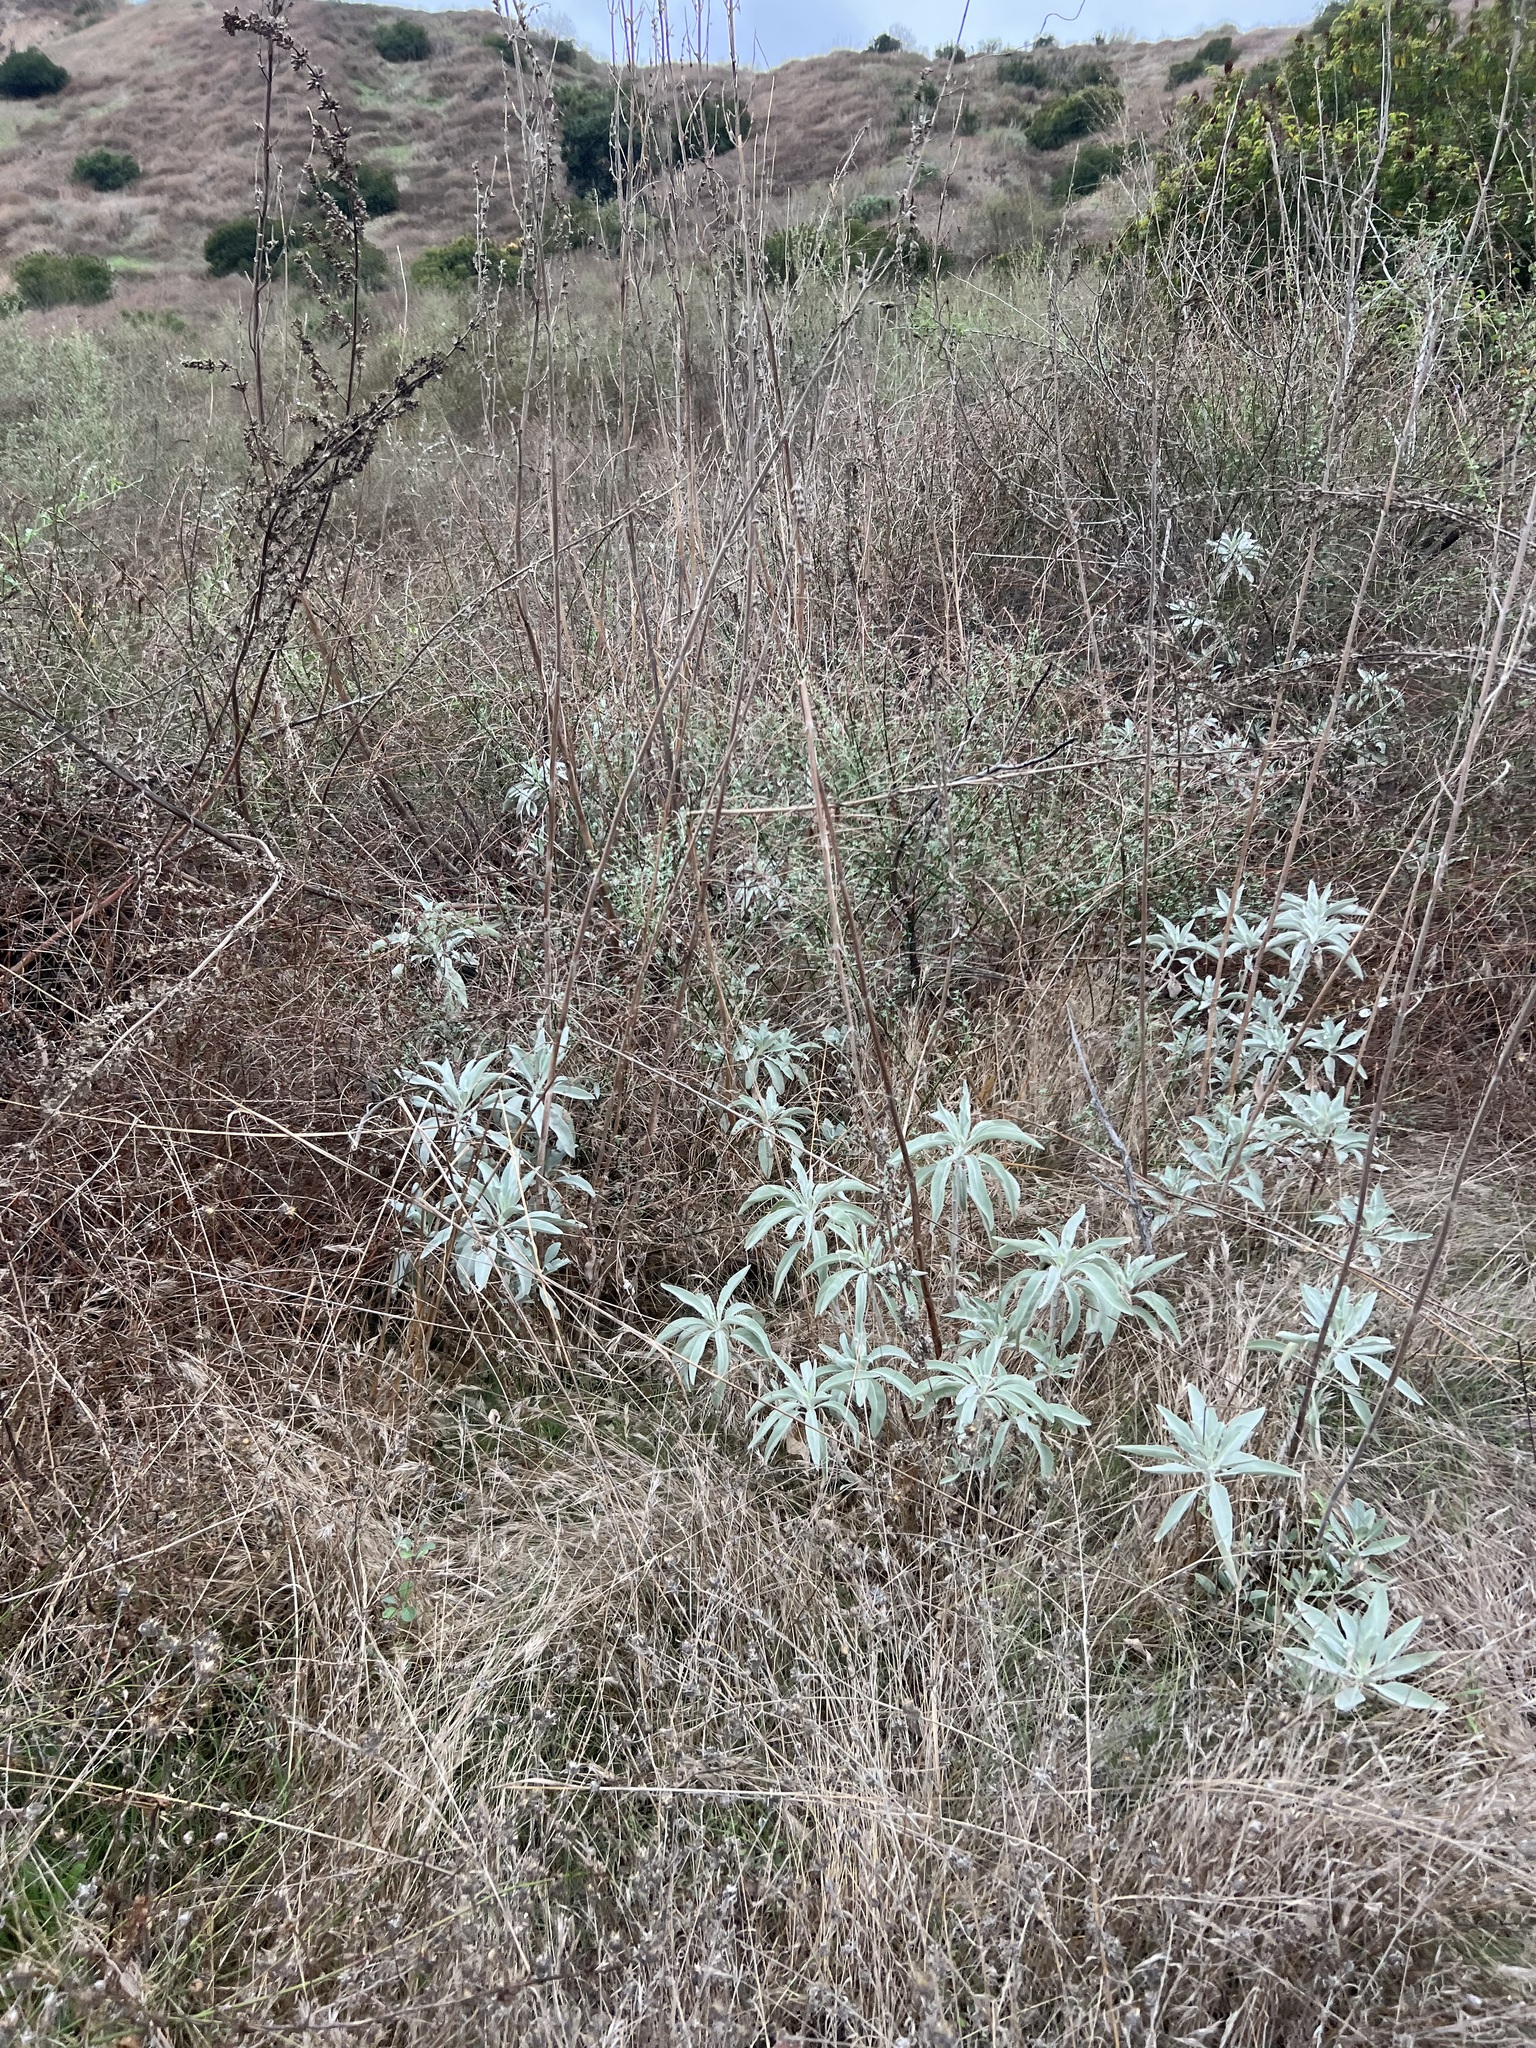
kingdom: Plantae
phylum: Tracheophyta
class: Magnoliopsida
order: Lamiales
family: Lamiaceae
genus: Salvia
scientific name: Salvia apiana
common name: White sage
